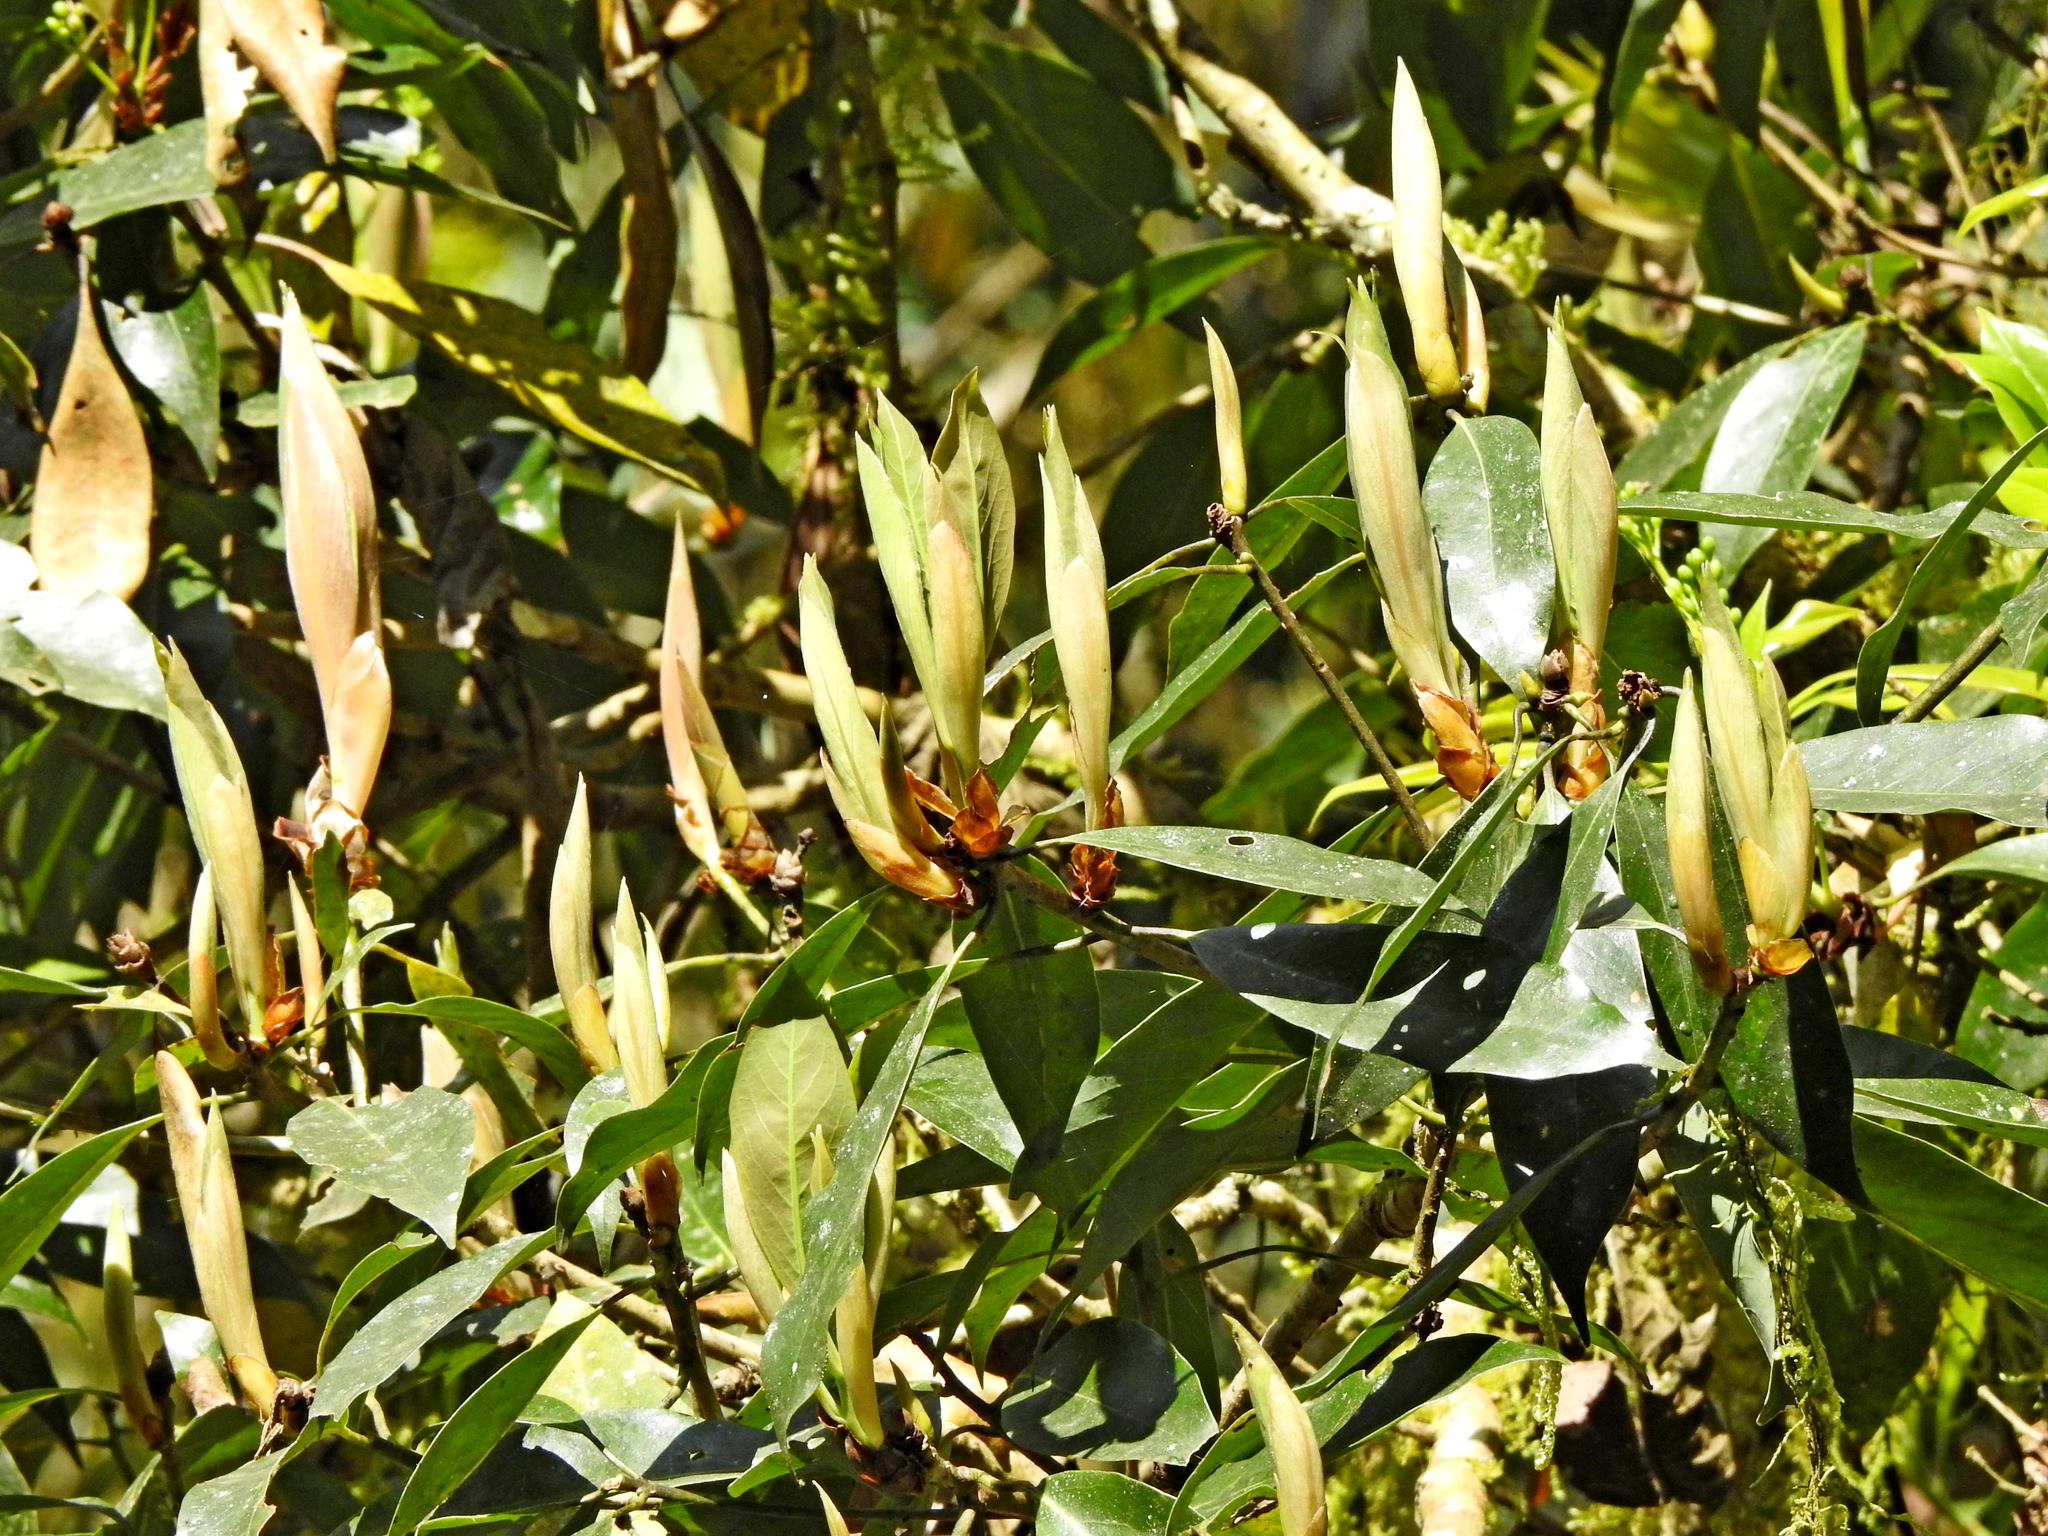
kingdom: Plantae
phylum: Tracheophyta
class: Magnoliopsida
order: Laurales
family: Lauraceae
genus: Machilus
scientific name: Machilus japonica
